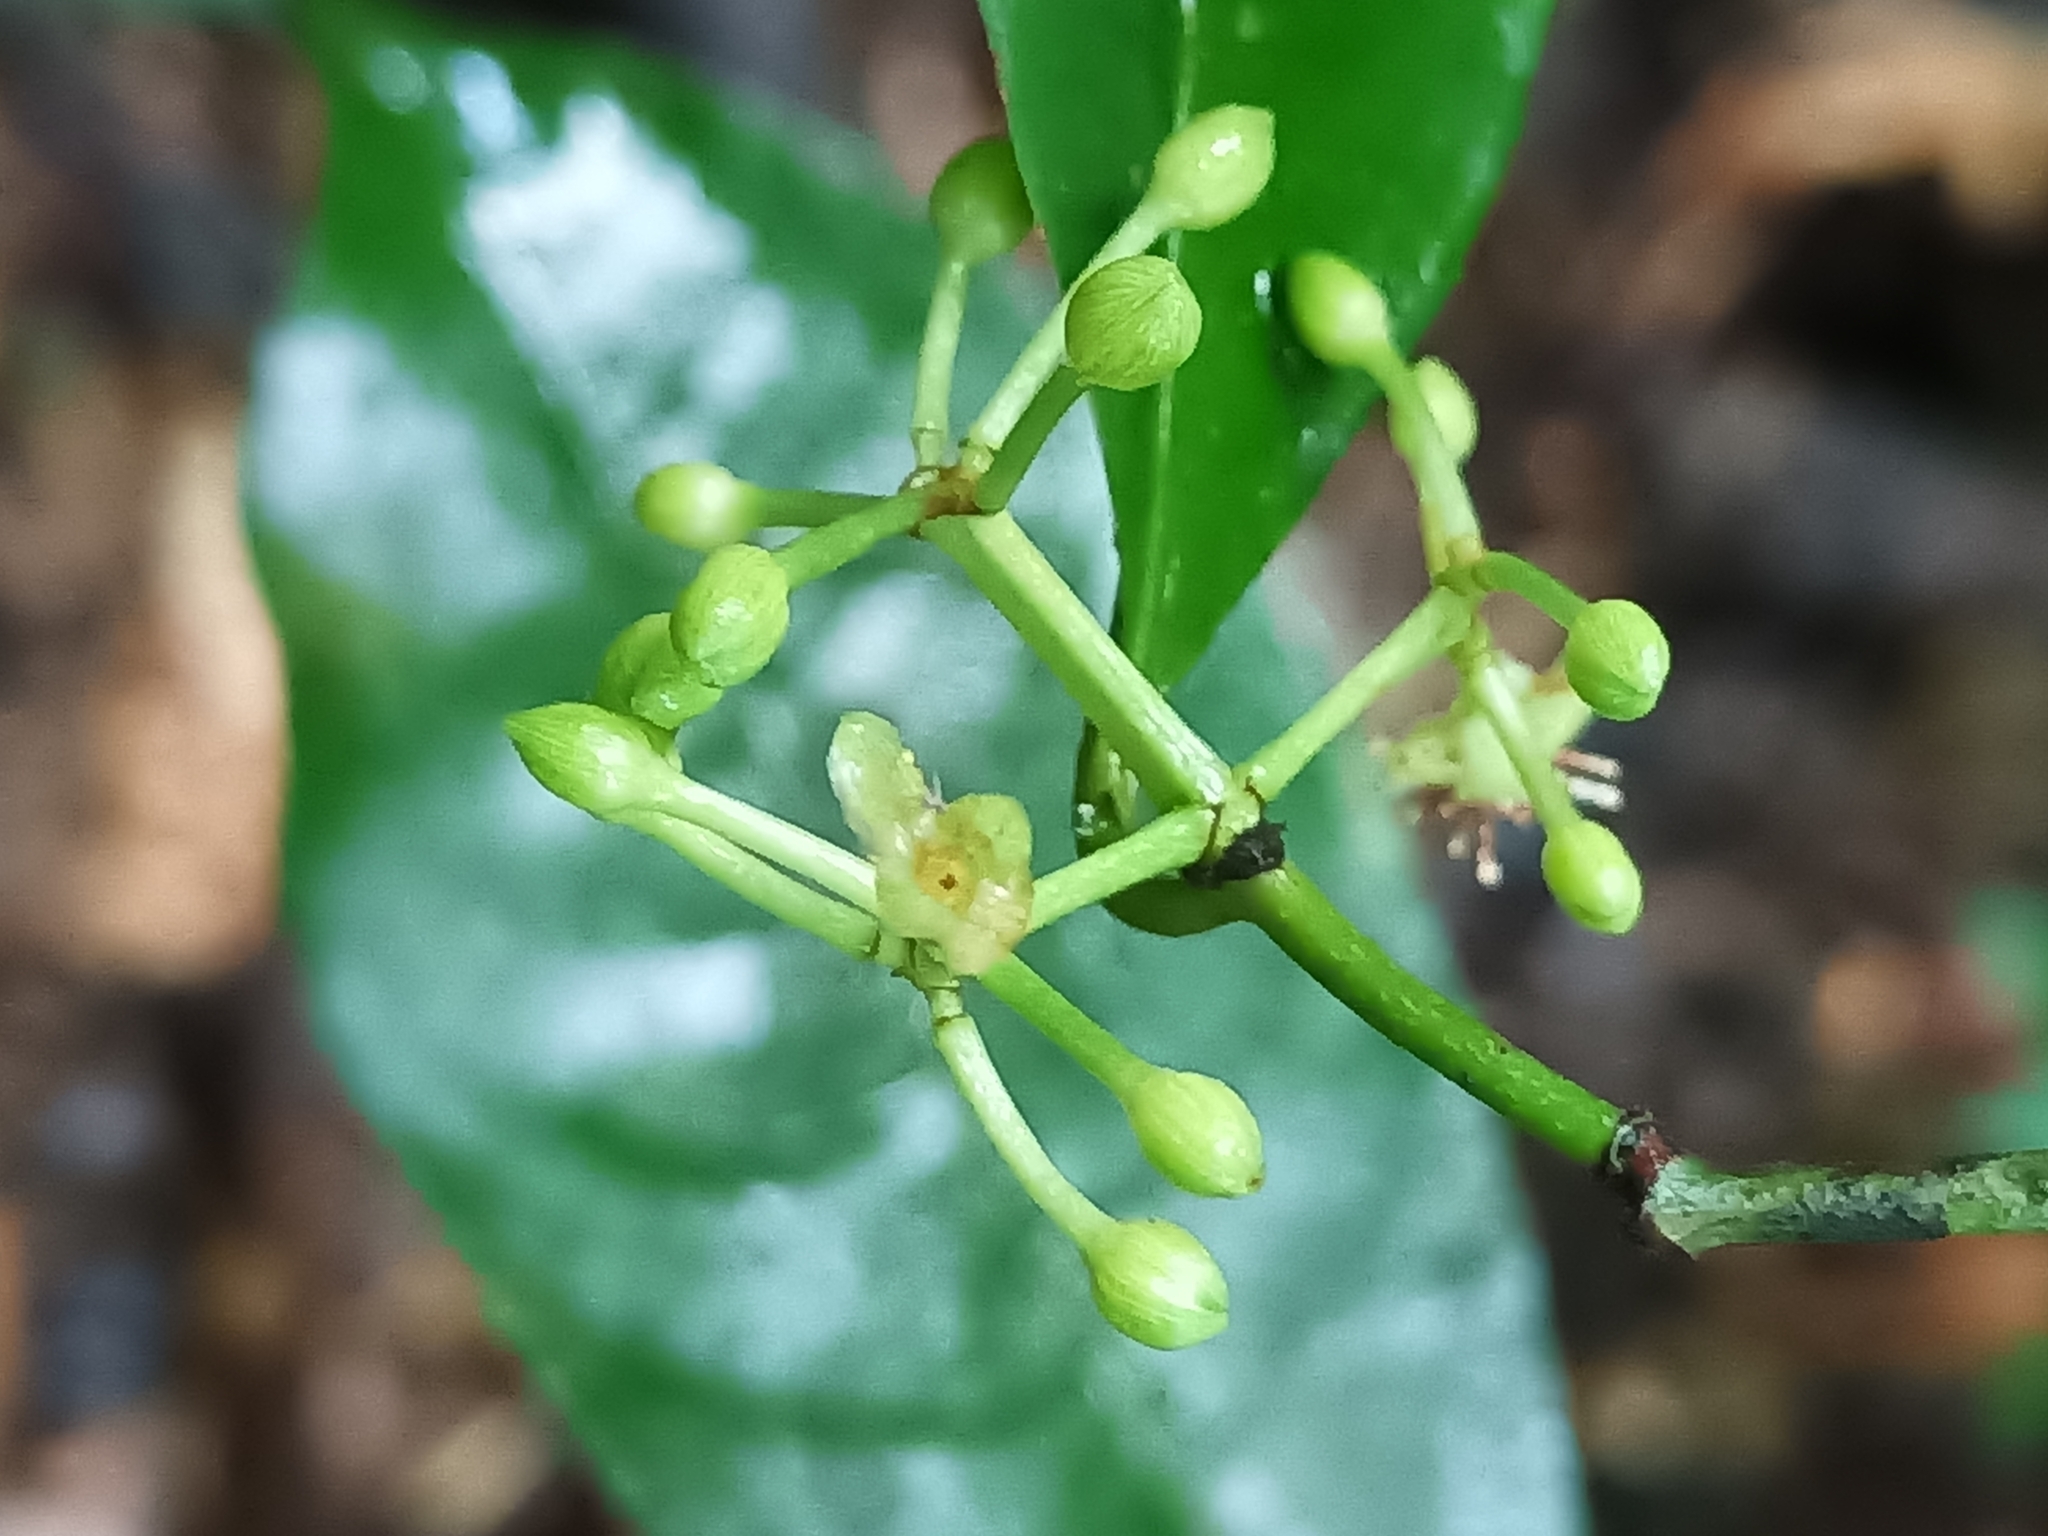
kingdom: Plantae
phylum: Tracheophyta
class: Magnoliopsida
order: Malpighiales
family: Clusiaceae
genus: Tovomita
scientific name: Tovomita saulensis
